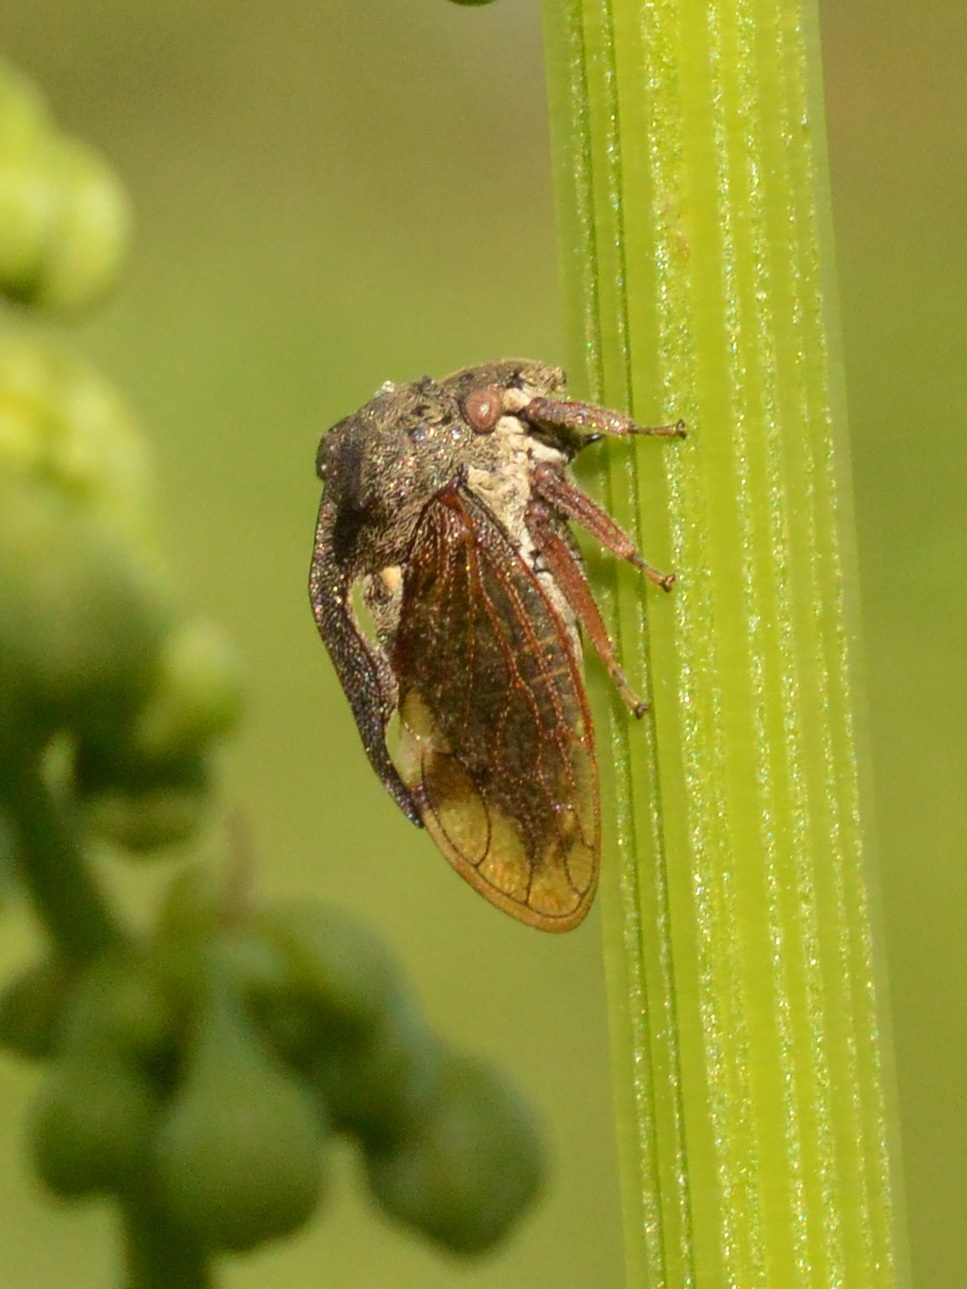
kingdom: Animalia
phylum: Arthropoda
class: Insecta
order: Hemiptera
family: Membracidae
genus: Centrotus
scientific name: Centrotus cornuta
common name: Treehopper
